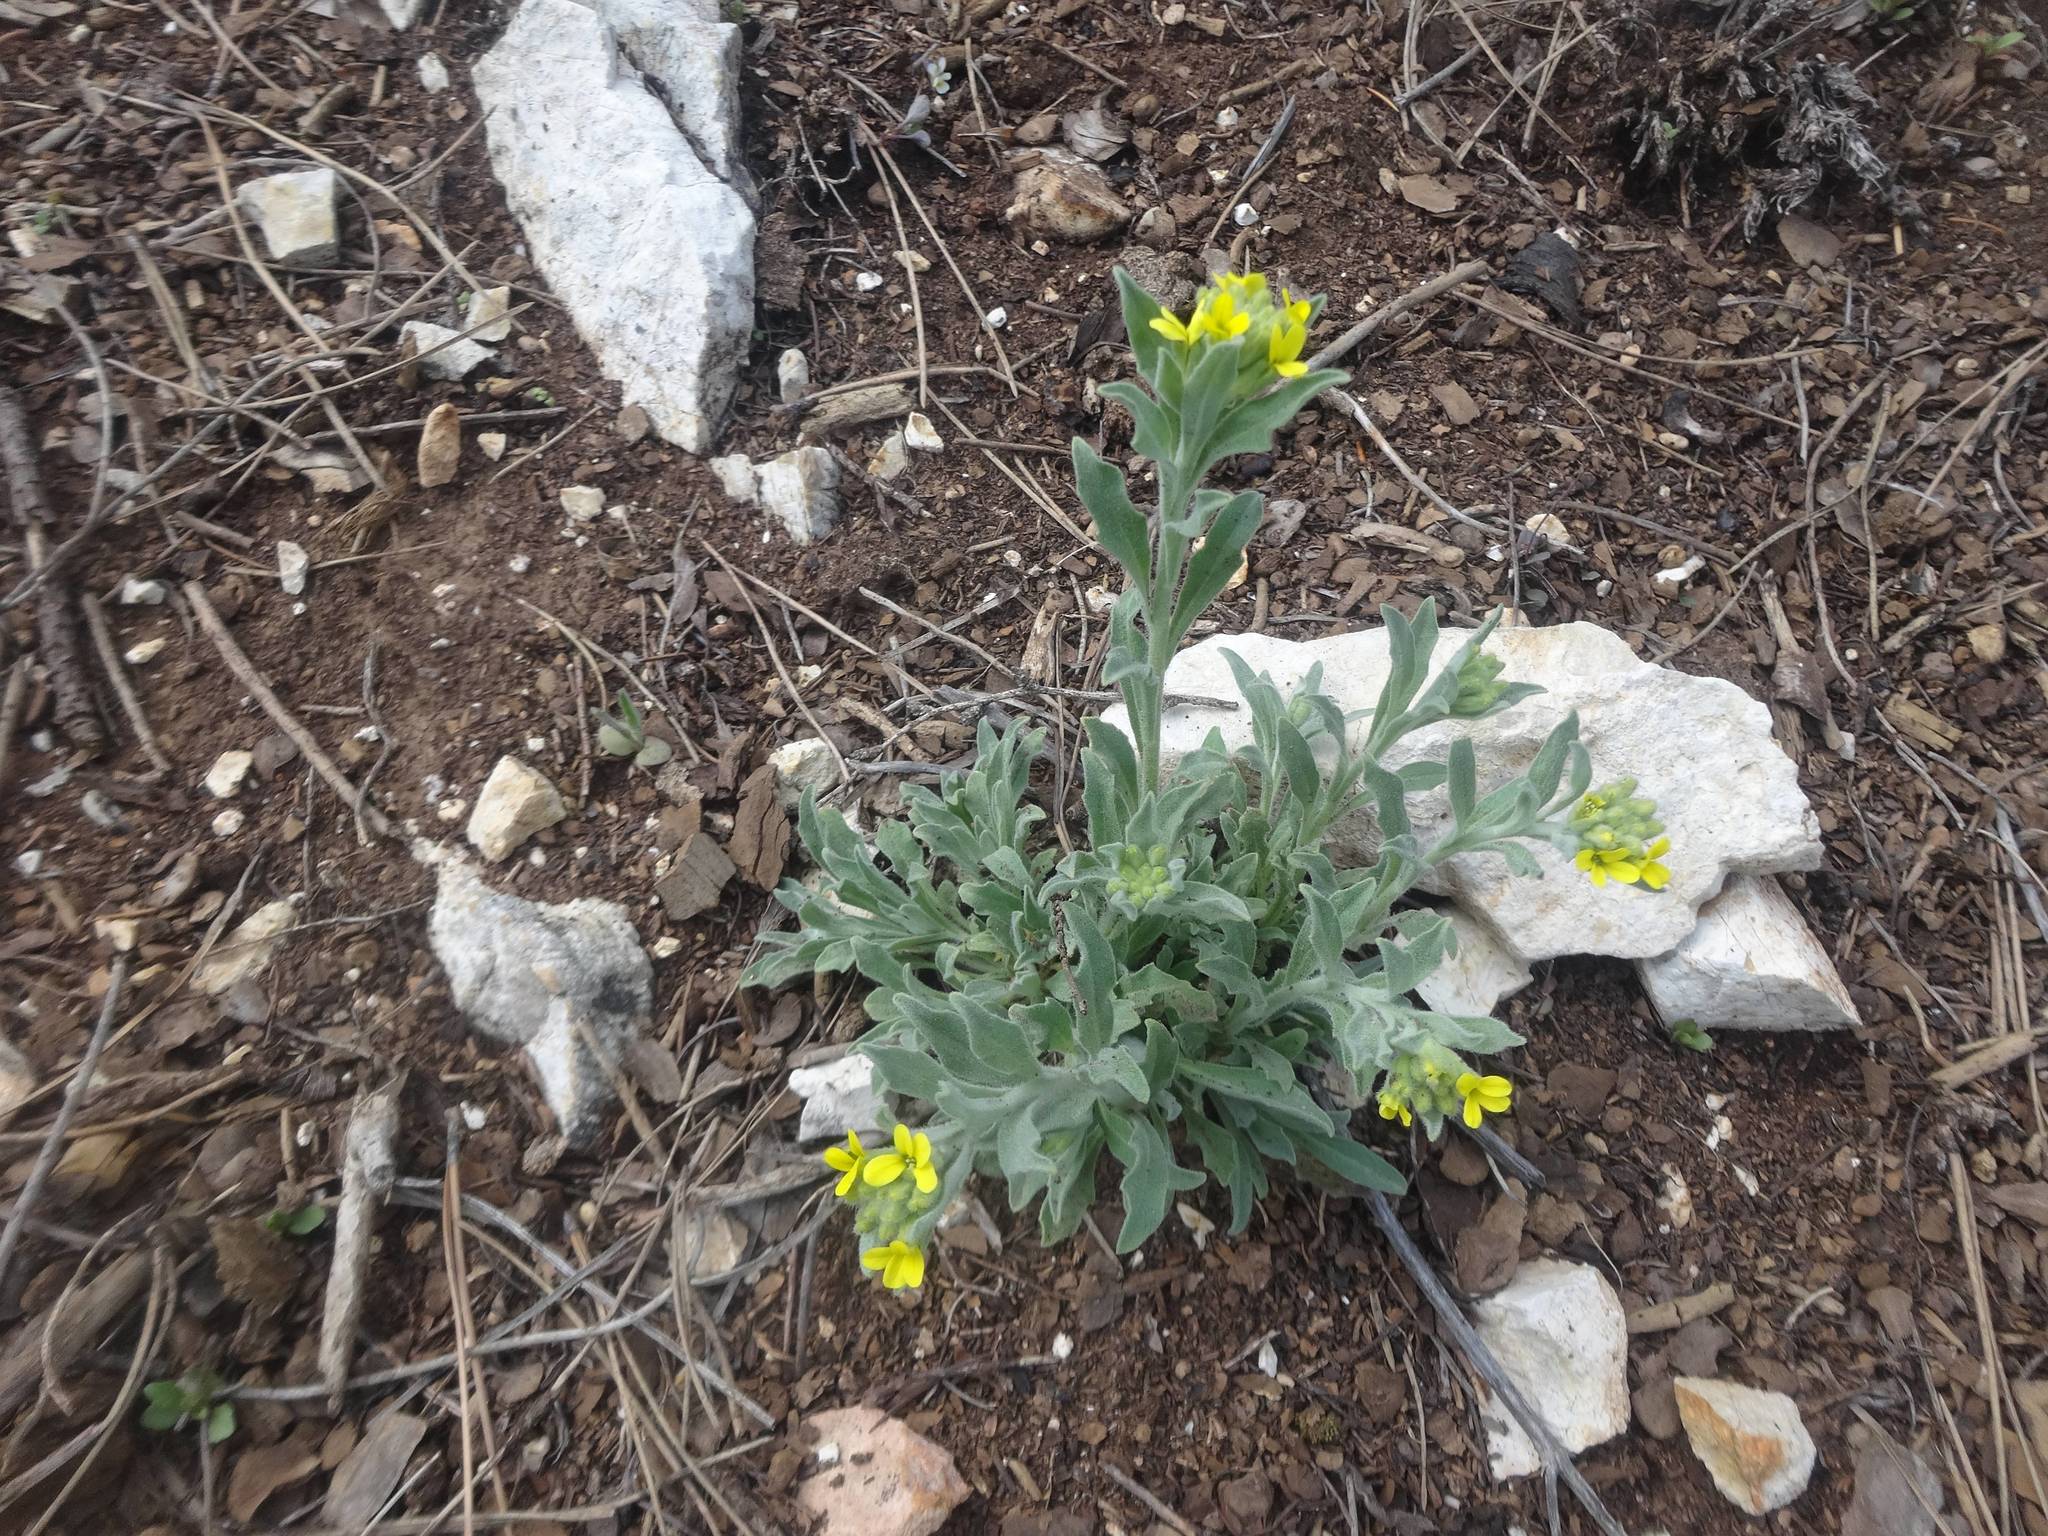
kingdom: Plantae
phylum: Tracheophyta
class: Magnoliopsida
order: Brassicales
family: Brassicaceae
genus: Fibigia
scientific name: Fibigia clypeata
